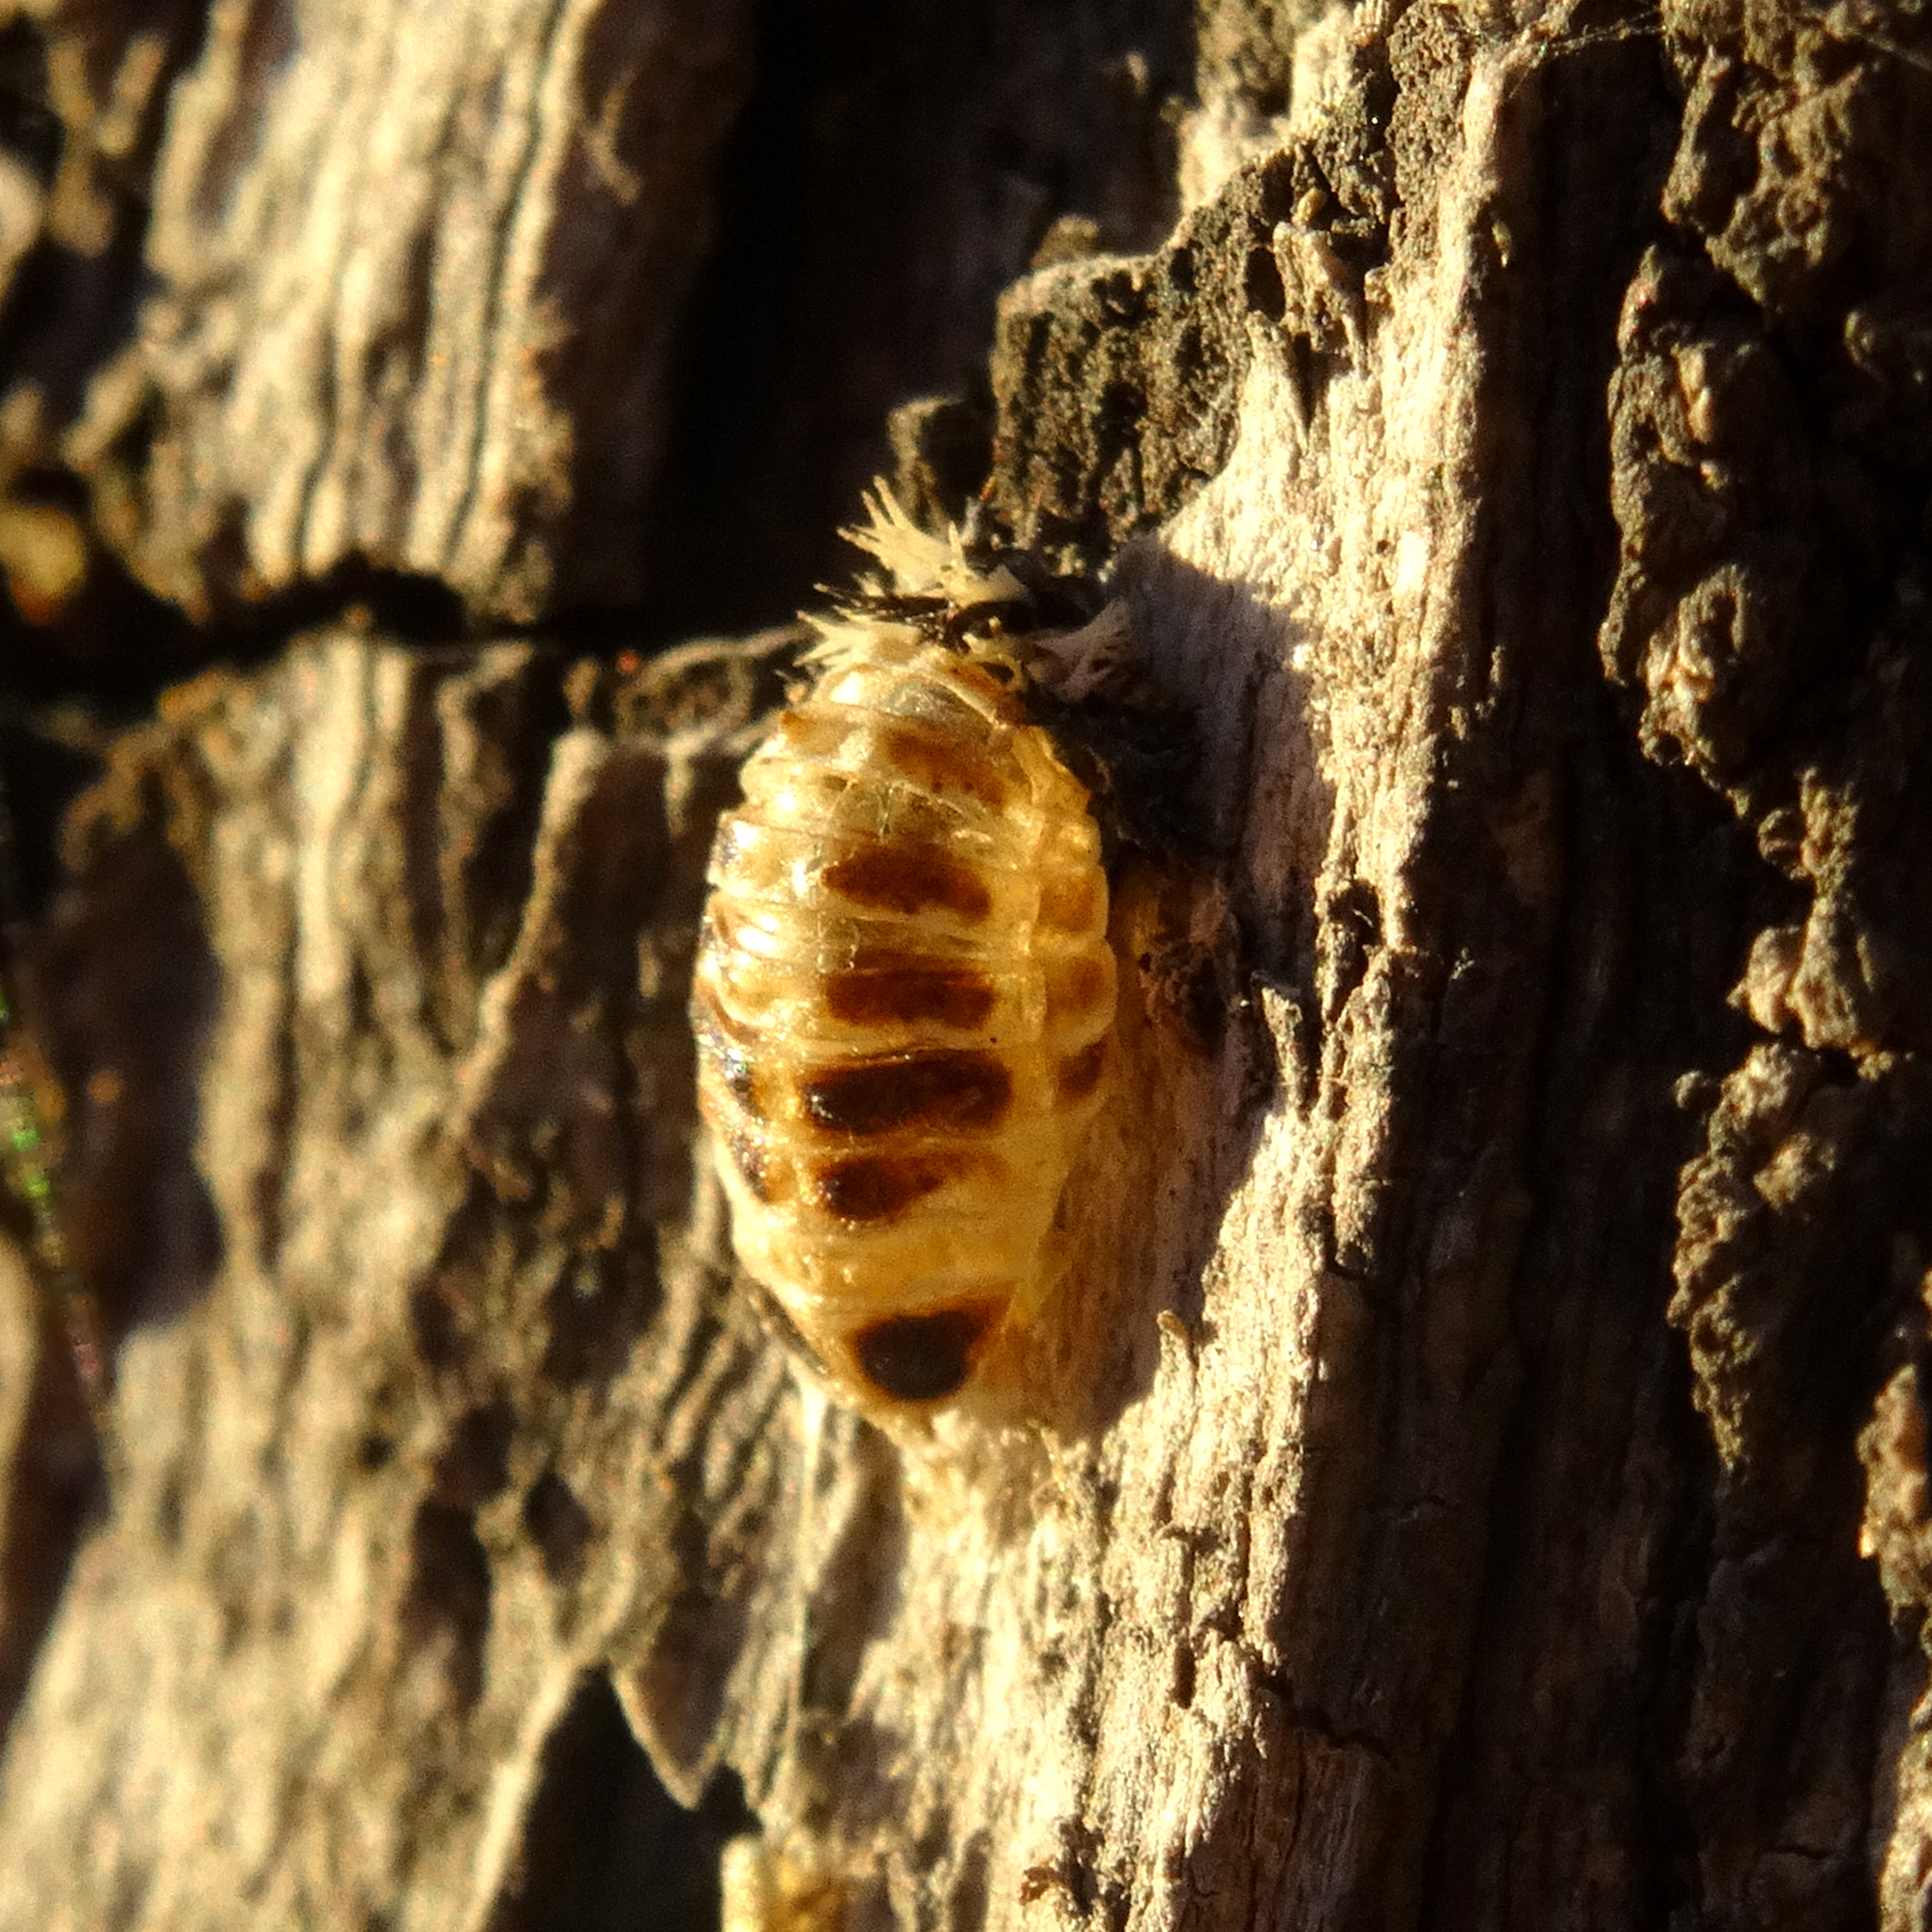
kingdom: Animalia
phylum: Arthropoda
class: Insecta
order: Coleoptera
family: Coccinellidae
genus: Harmonia
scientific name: Harmonia axyridis
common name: Harlequin ladybird
